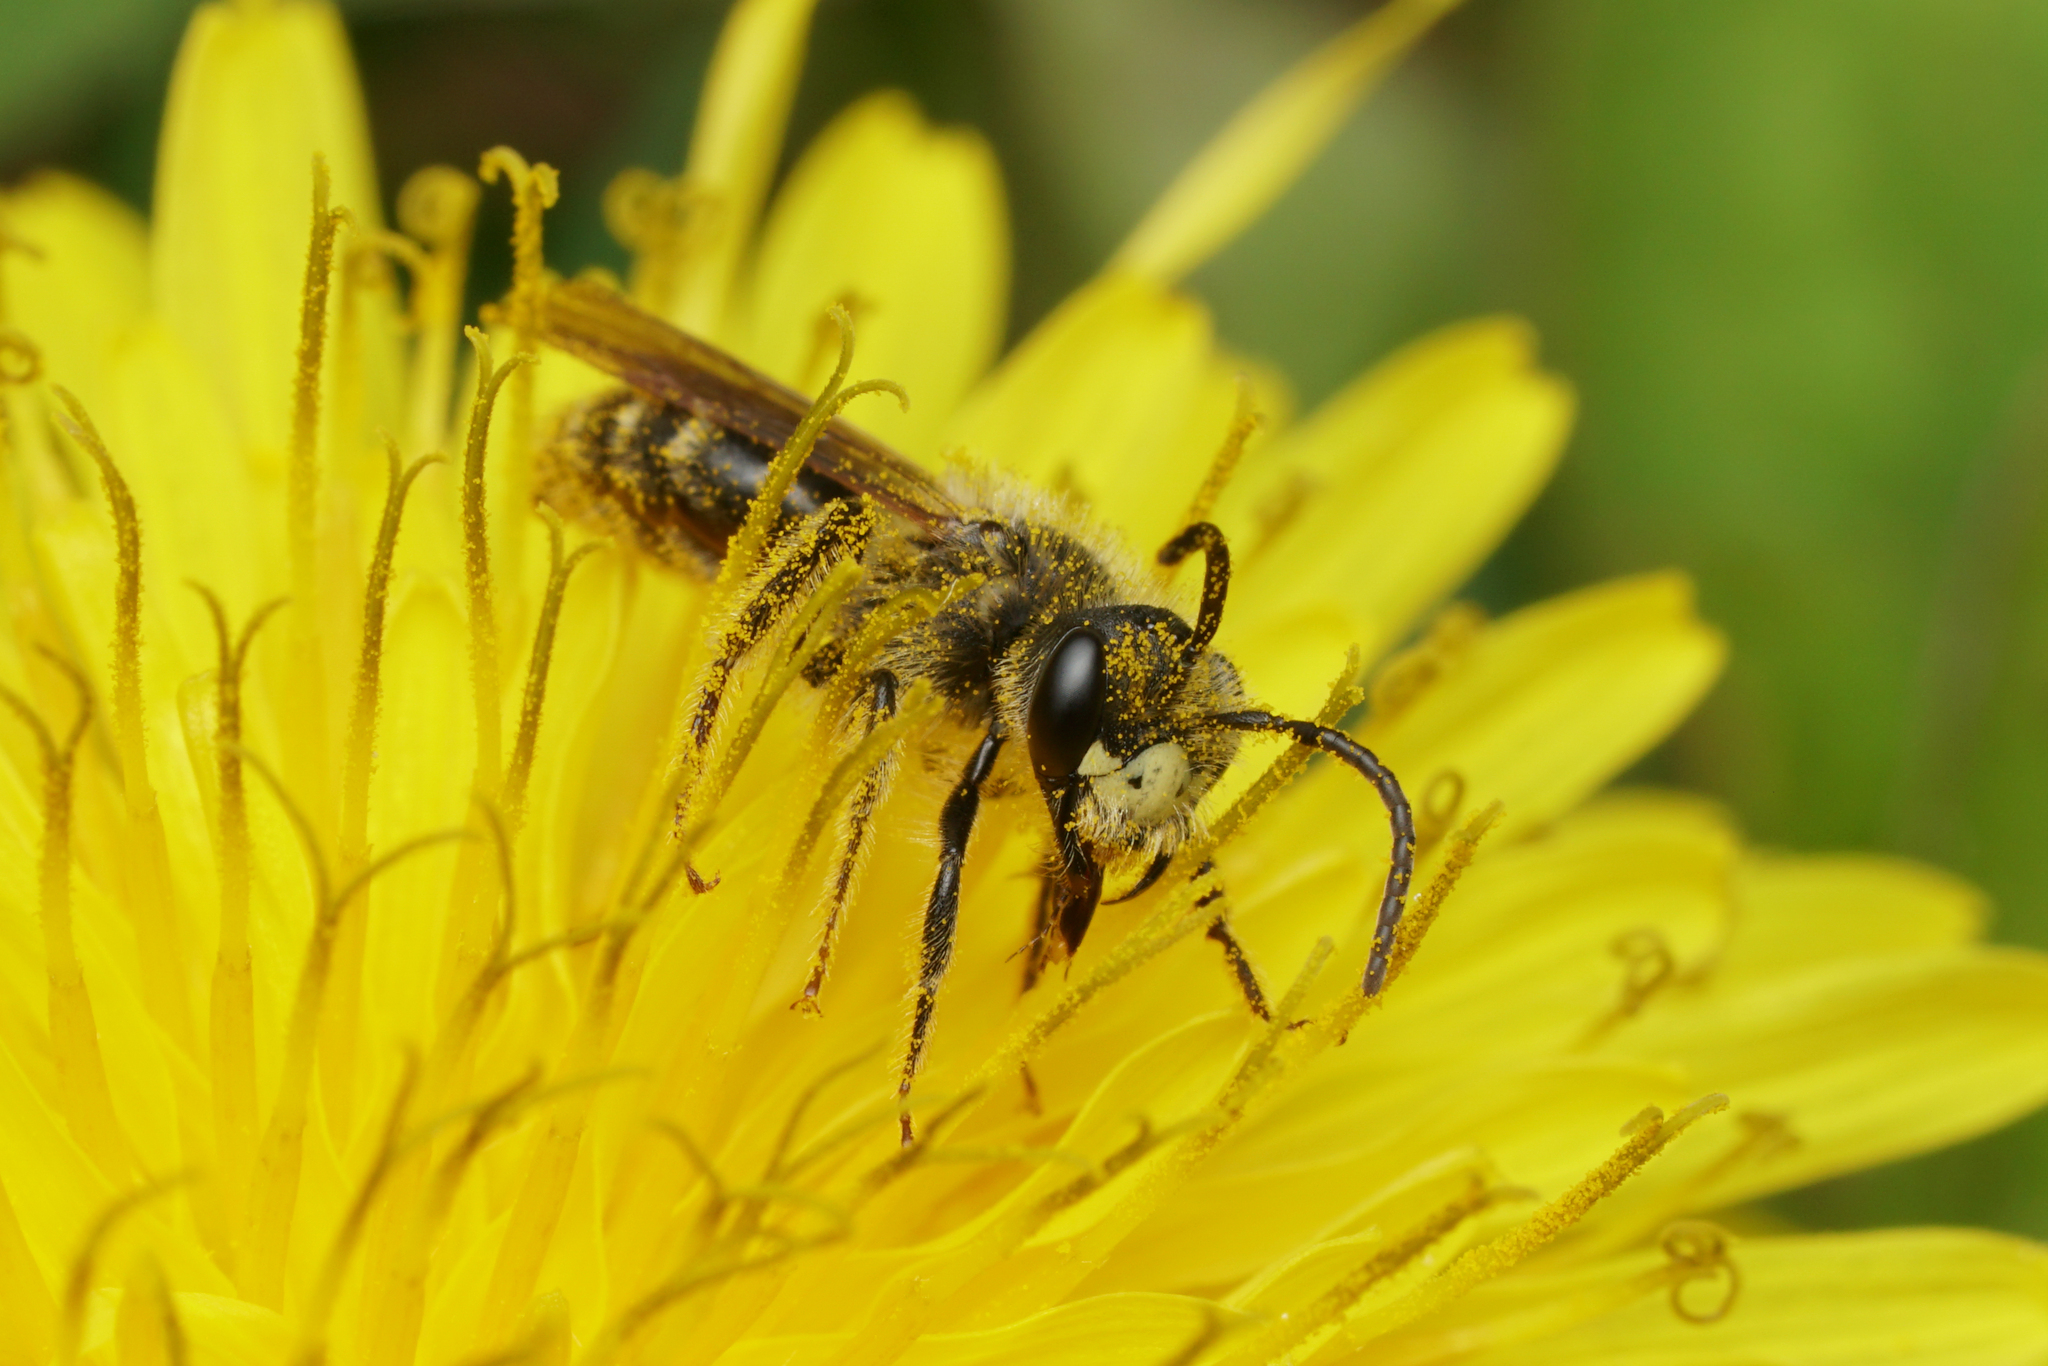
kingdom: Animalia
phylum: Arthropoda
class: Insecta
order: Hymenoptera
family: Andrenidae
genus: Andrena
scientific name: Andrena cressonii
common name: Cresson's mining bee
